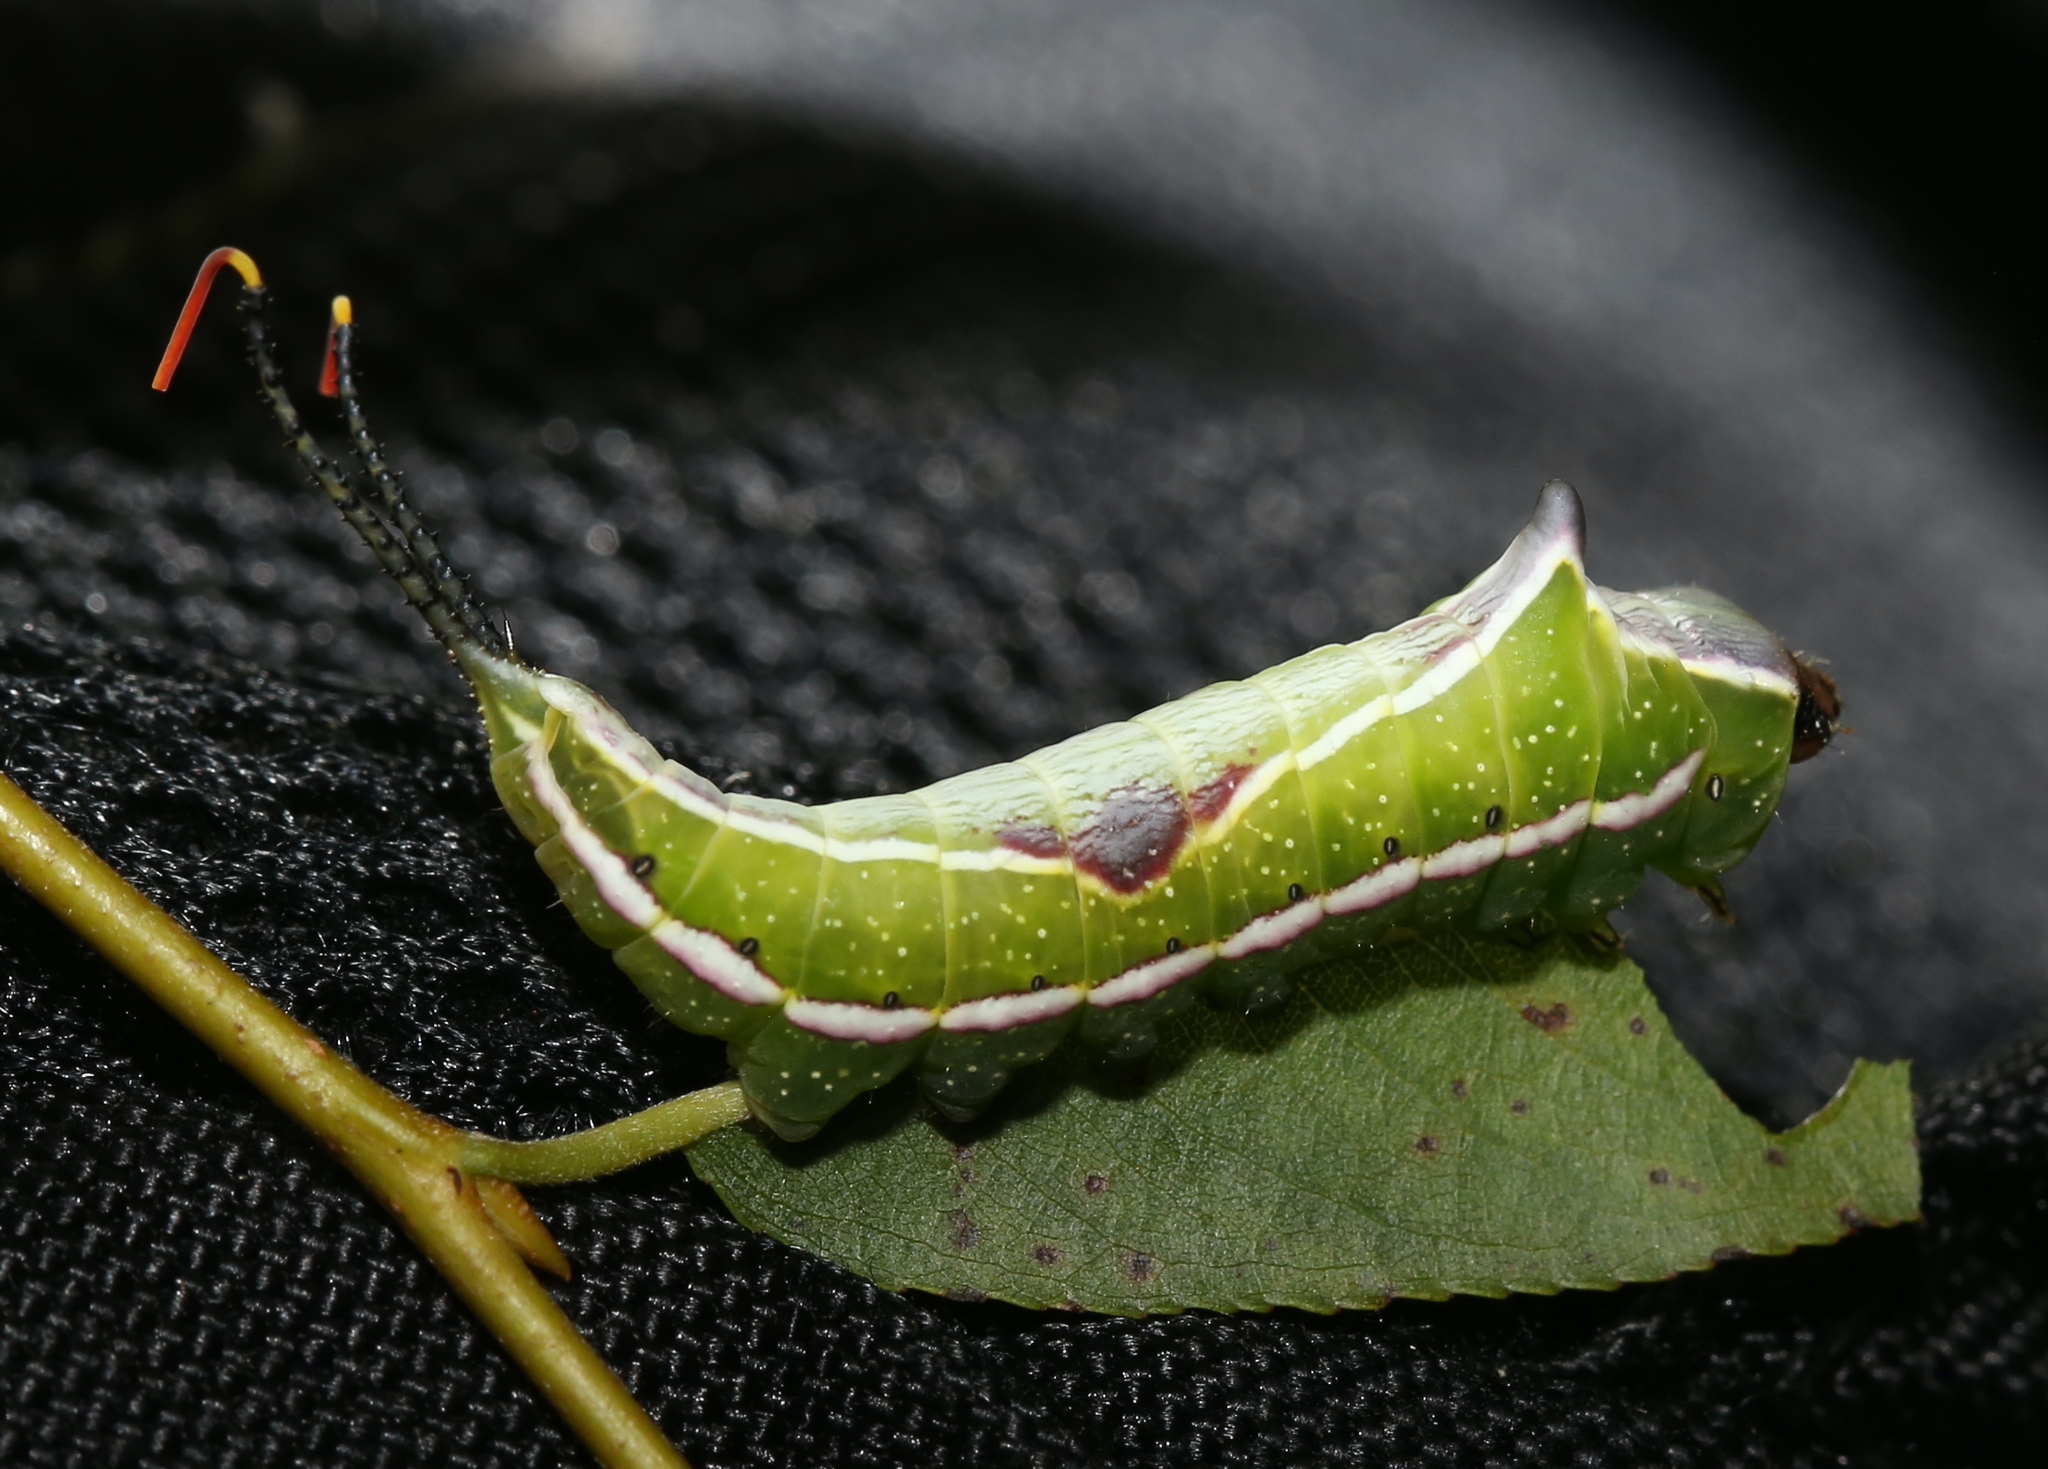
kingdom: Animalia
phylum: Arthropoda
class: Insecta
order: Lepidoptera
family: Notodontidae
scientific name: Notodontidae
